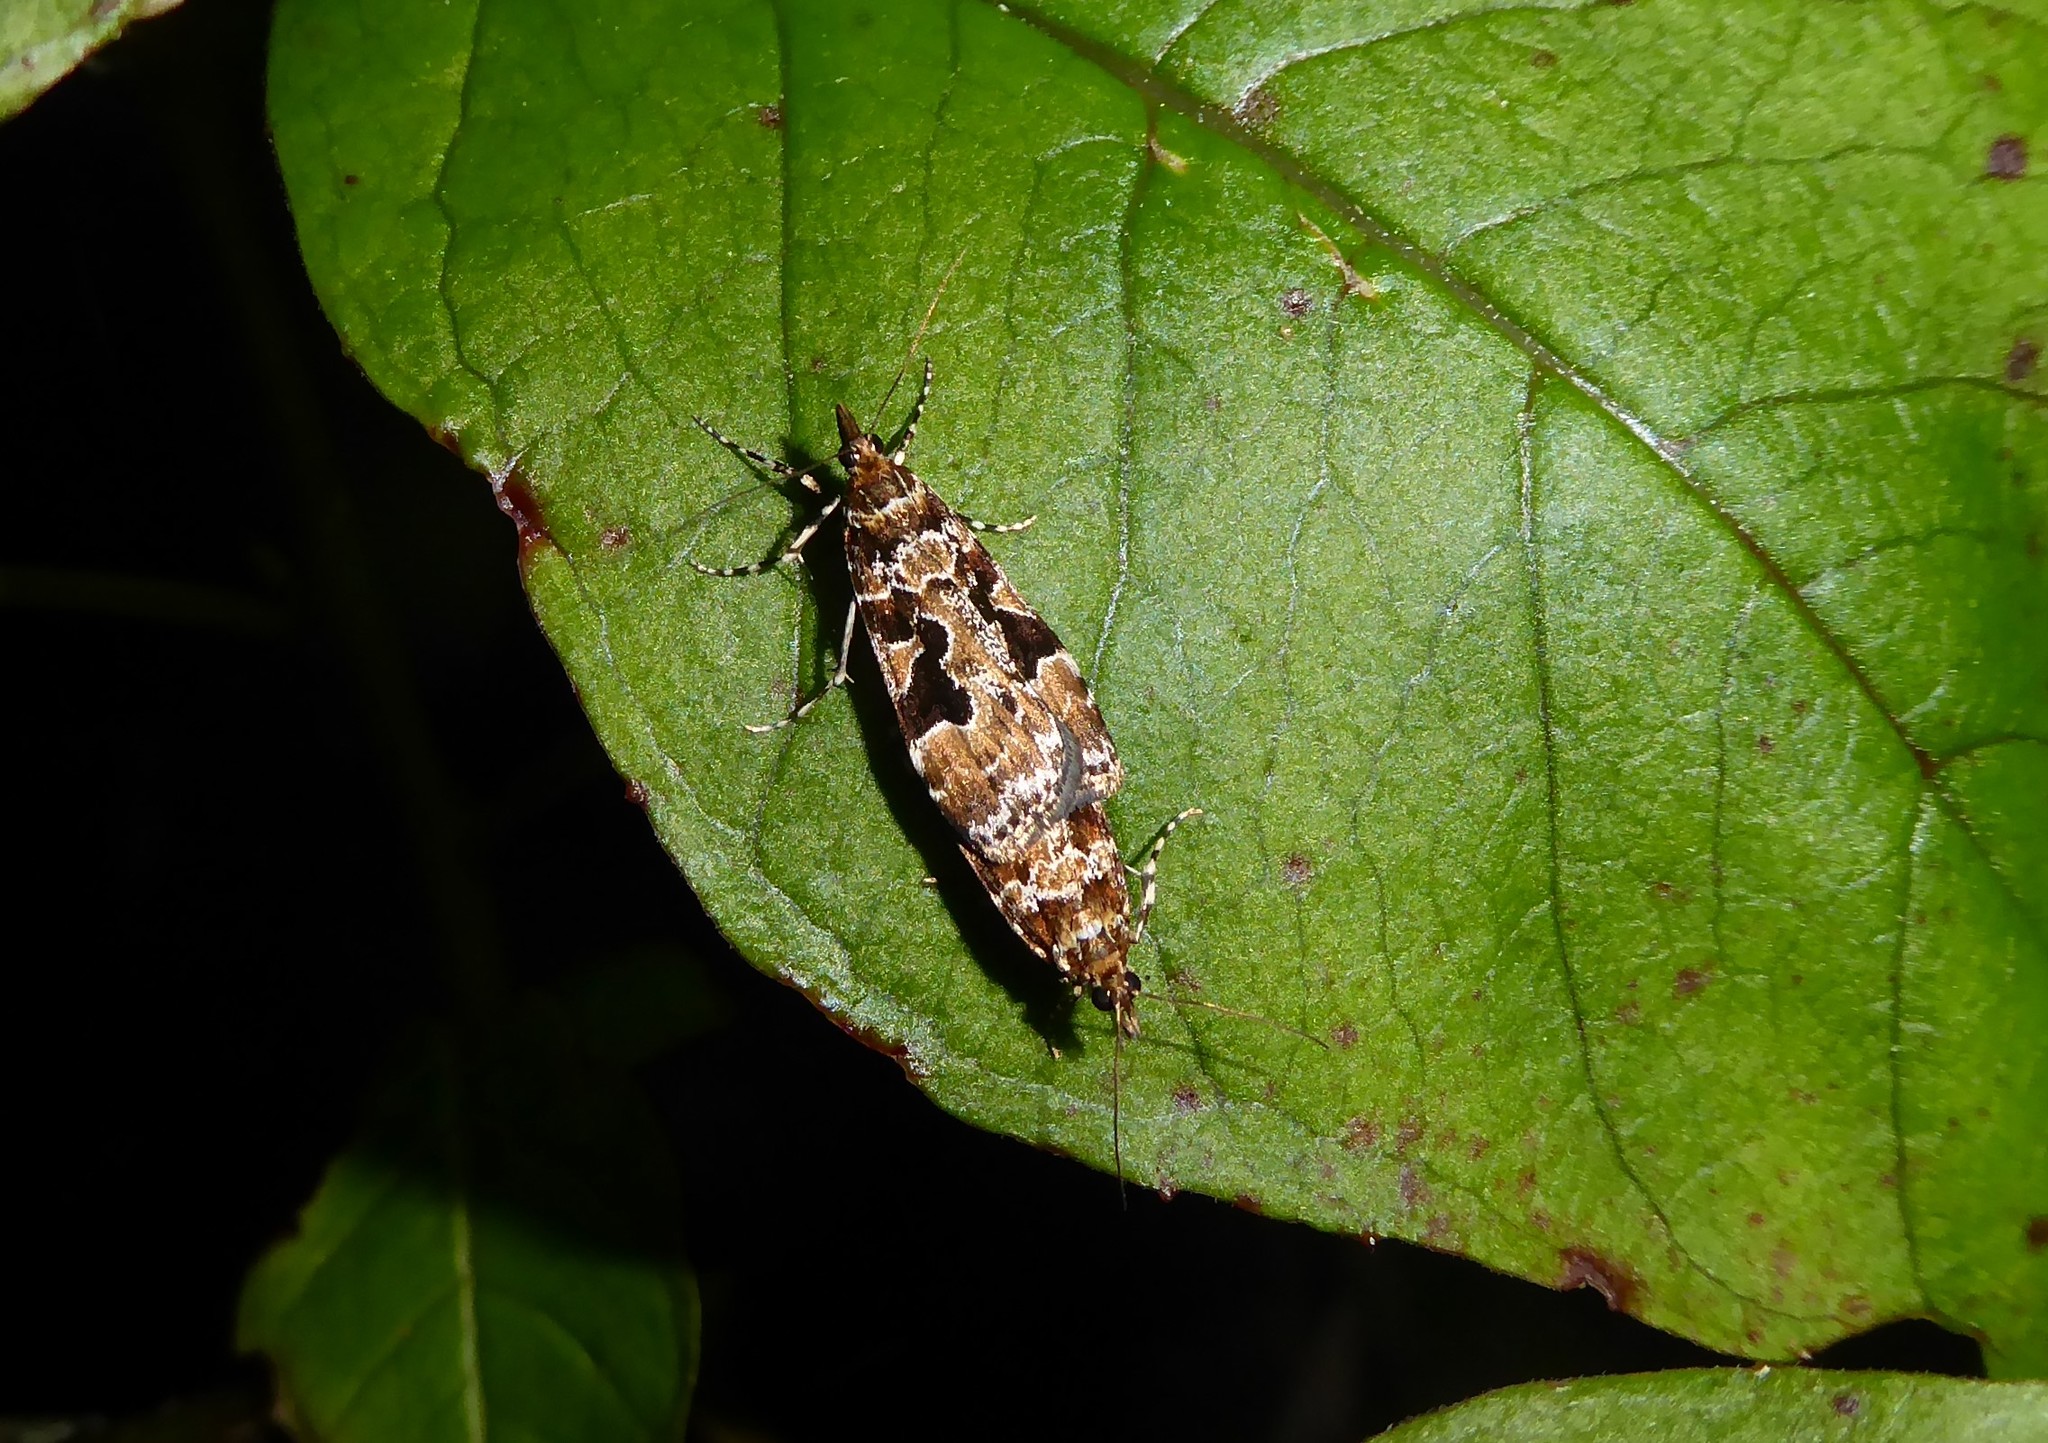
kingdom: Animalia
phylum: Arthropoda
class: Insecta
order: Lepidoptera
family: Crambidae
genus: Scoparia
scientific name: Scoparia ustimacula
